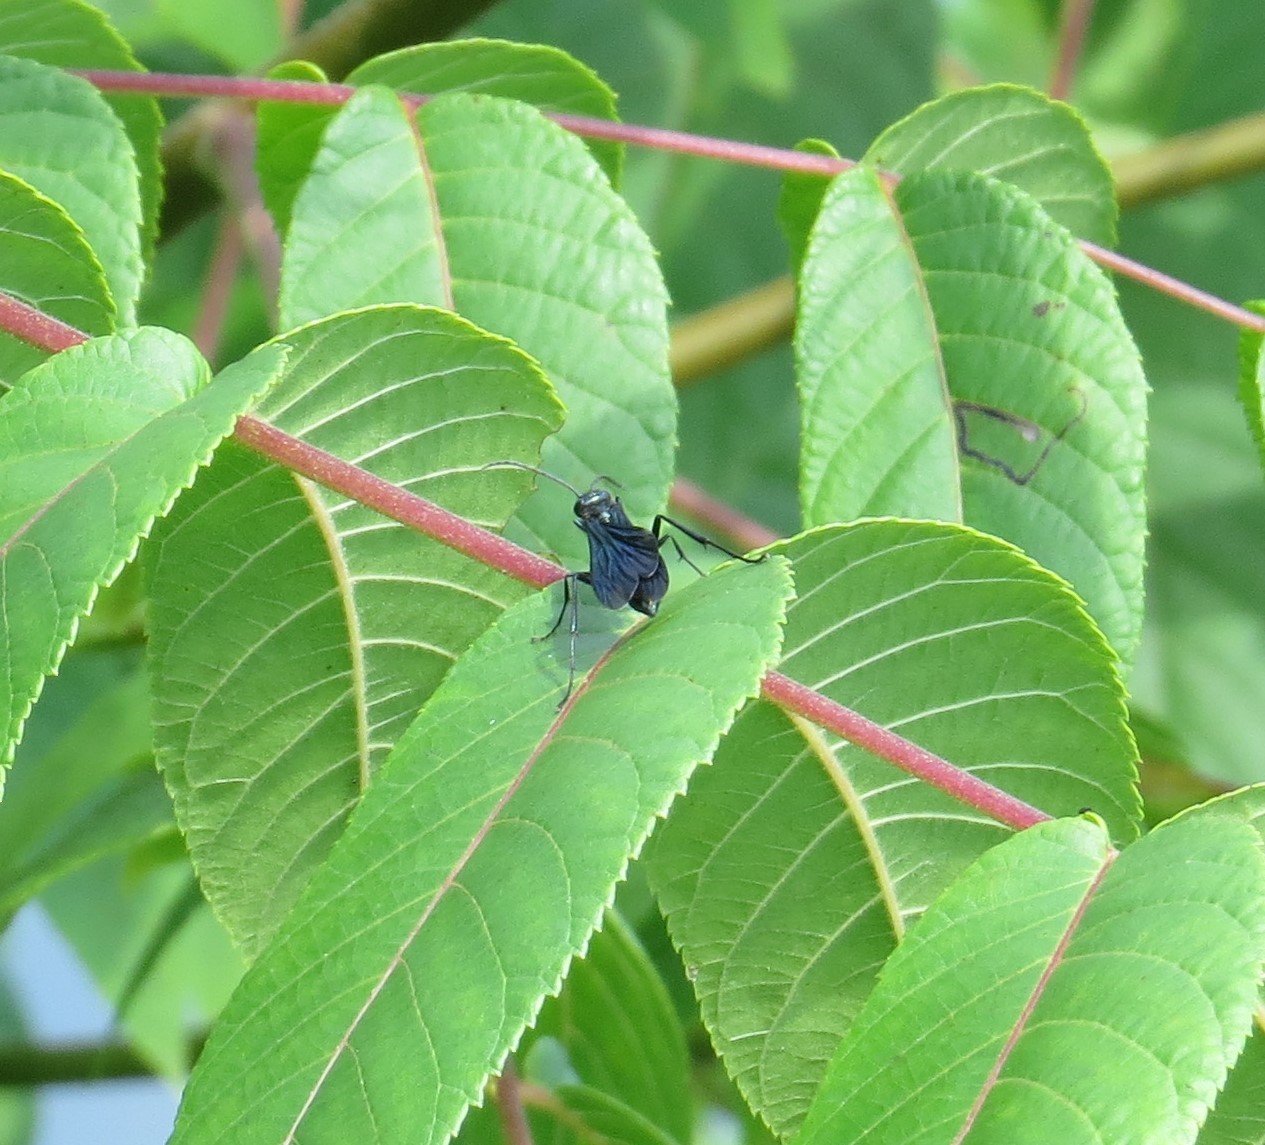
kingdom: Animalia
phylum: Arthropoda
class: Insecta
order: Hymenoptera
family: Sphecidae
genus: Chalybion
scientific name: Chalybion californicum
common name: Mud dauber
